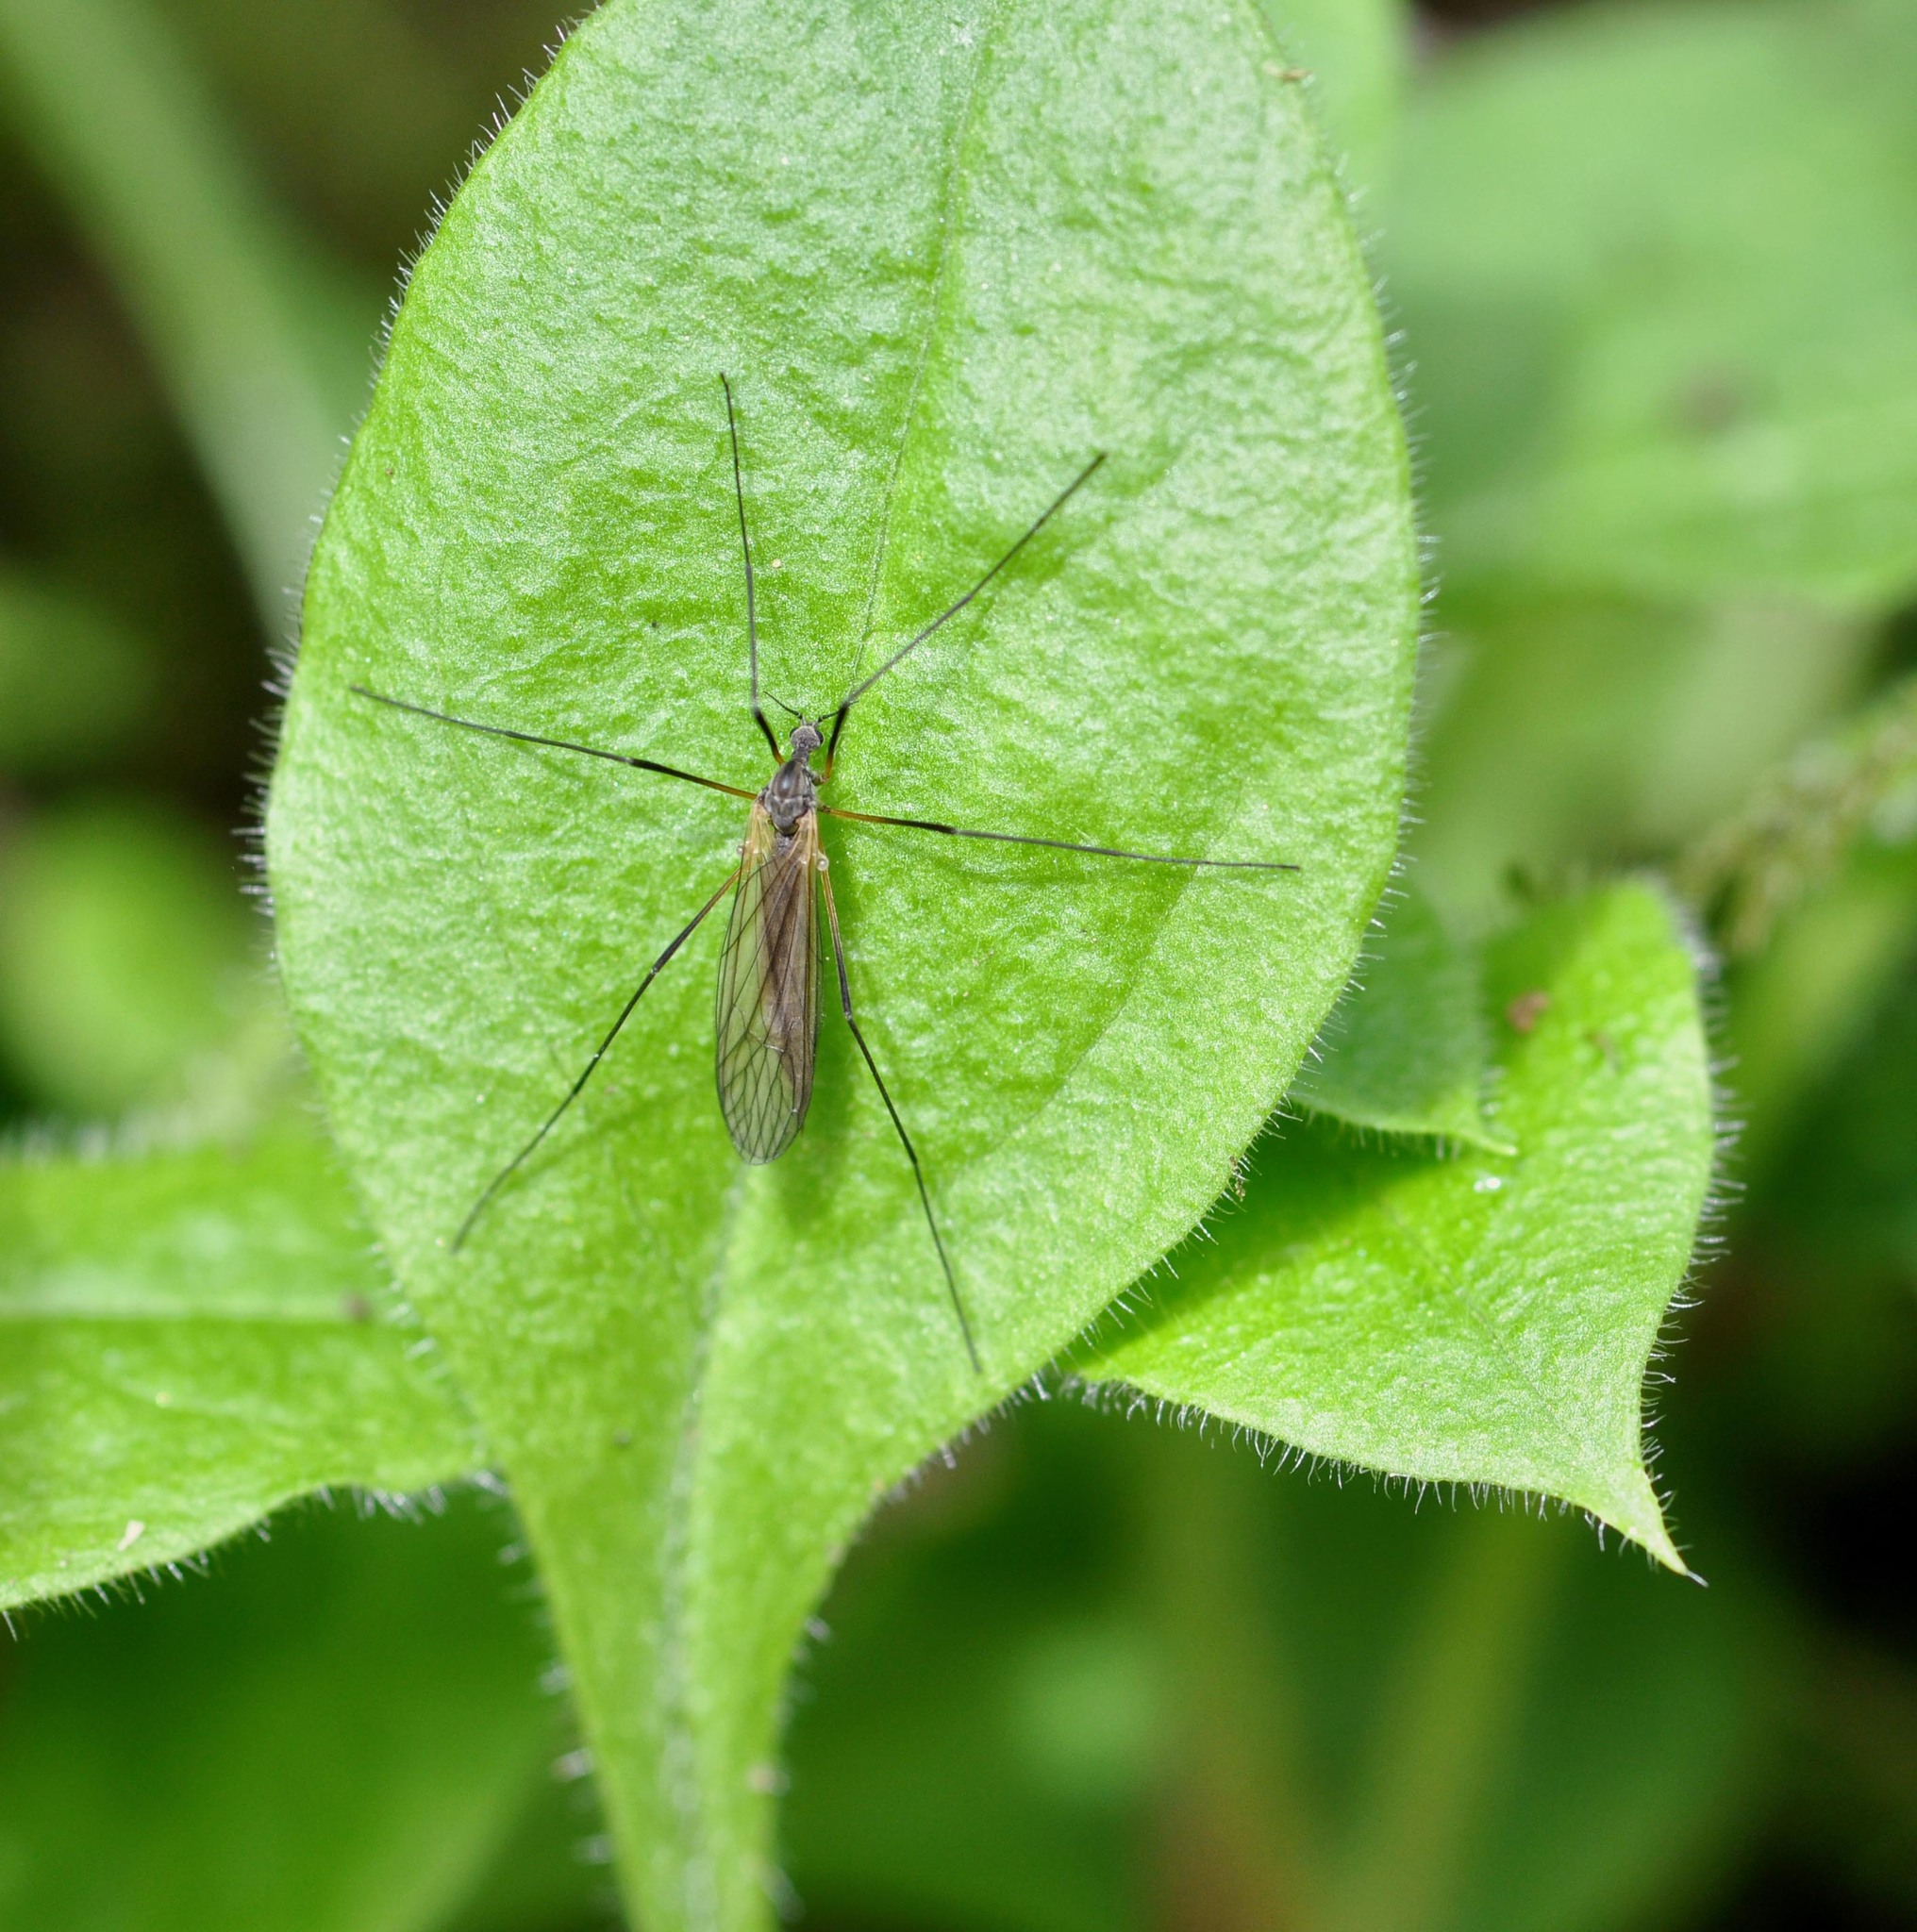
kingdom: Animalia
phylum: Arthropoda
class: Insecta
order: Diptera
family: Pediciidae
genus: Tricyphona
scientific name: Tricyphona immaculata
